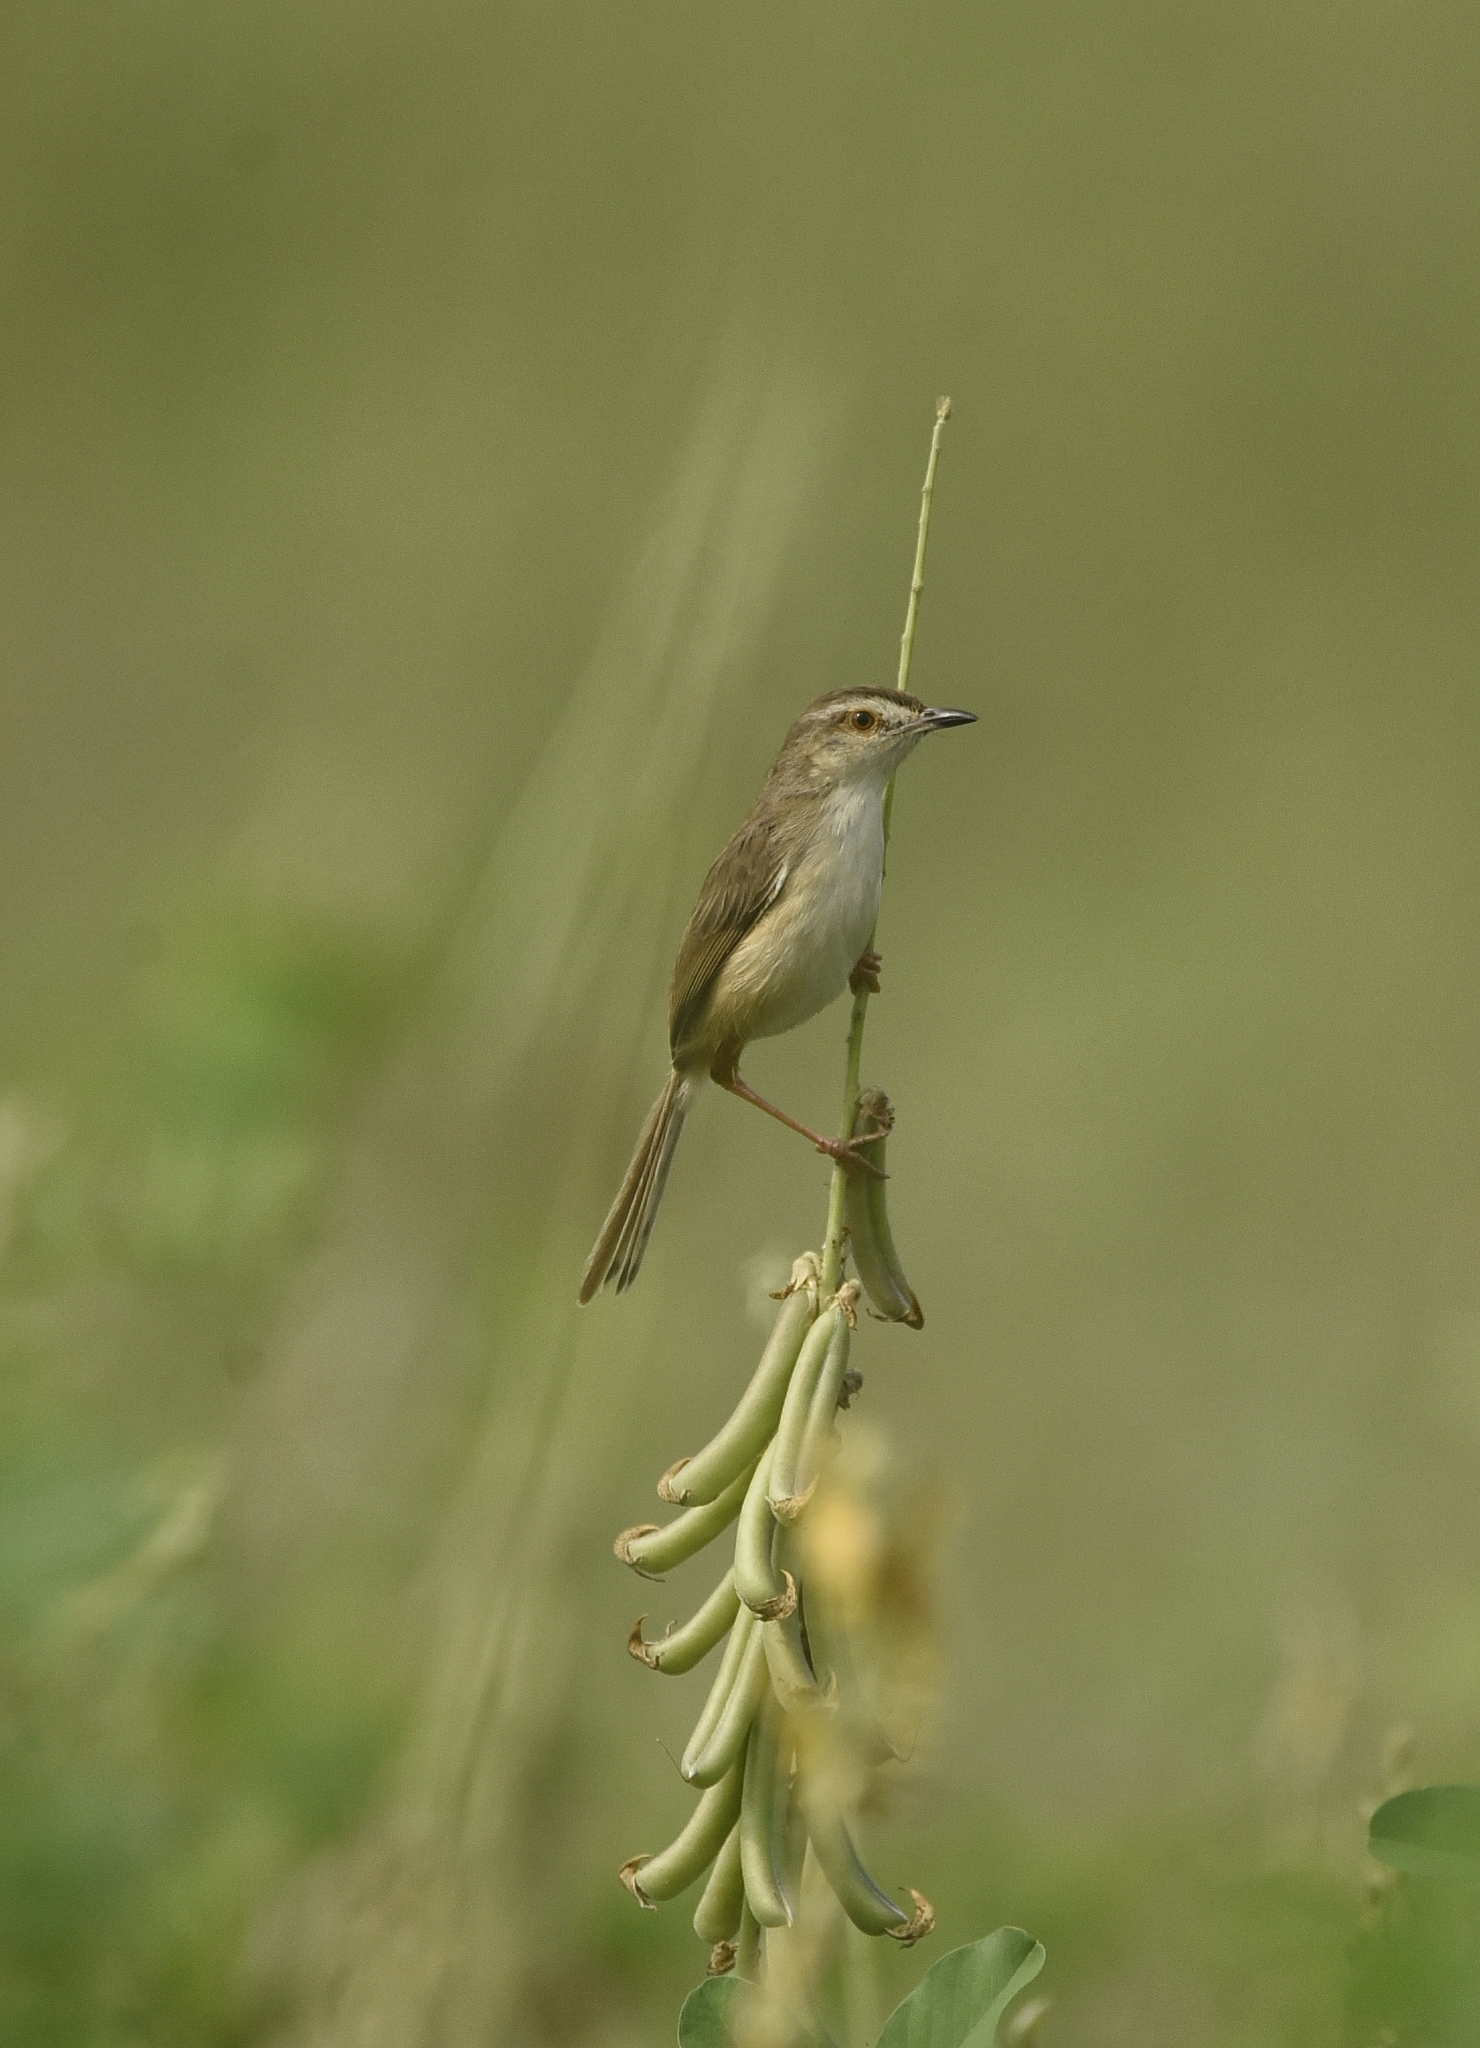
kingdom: Animalia
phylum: Chordata
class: Aves
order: Passeriformes
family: Cisticolidae
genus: Prinia
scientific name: Prinia inornata
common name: Plain prinia
